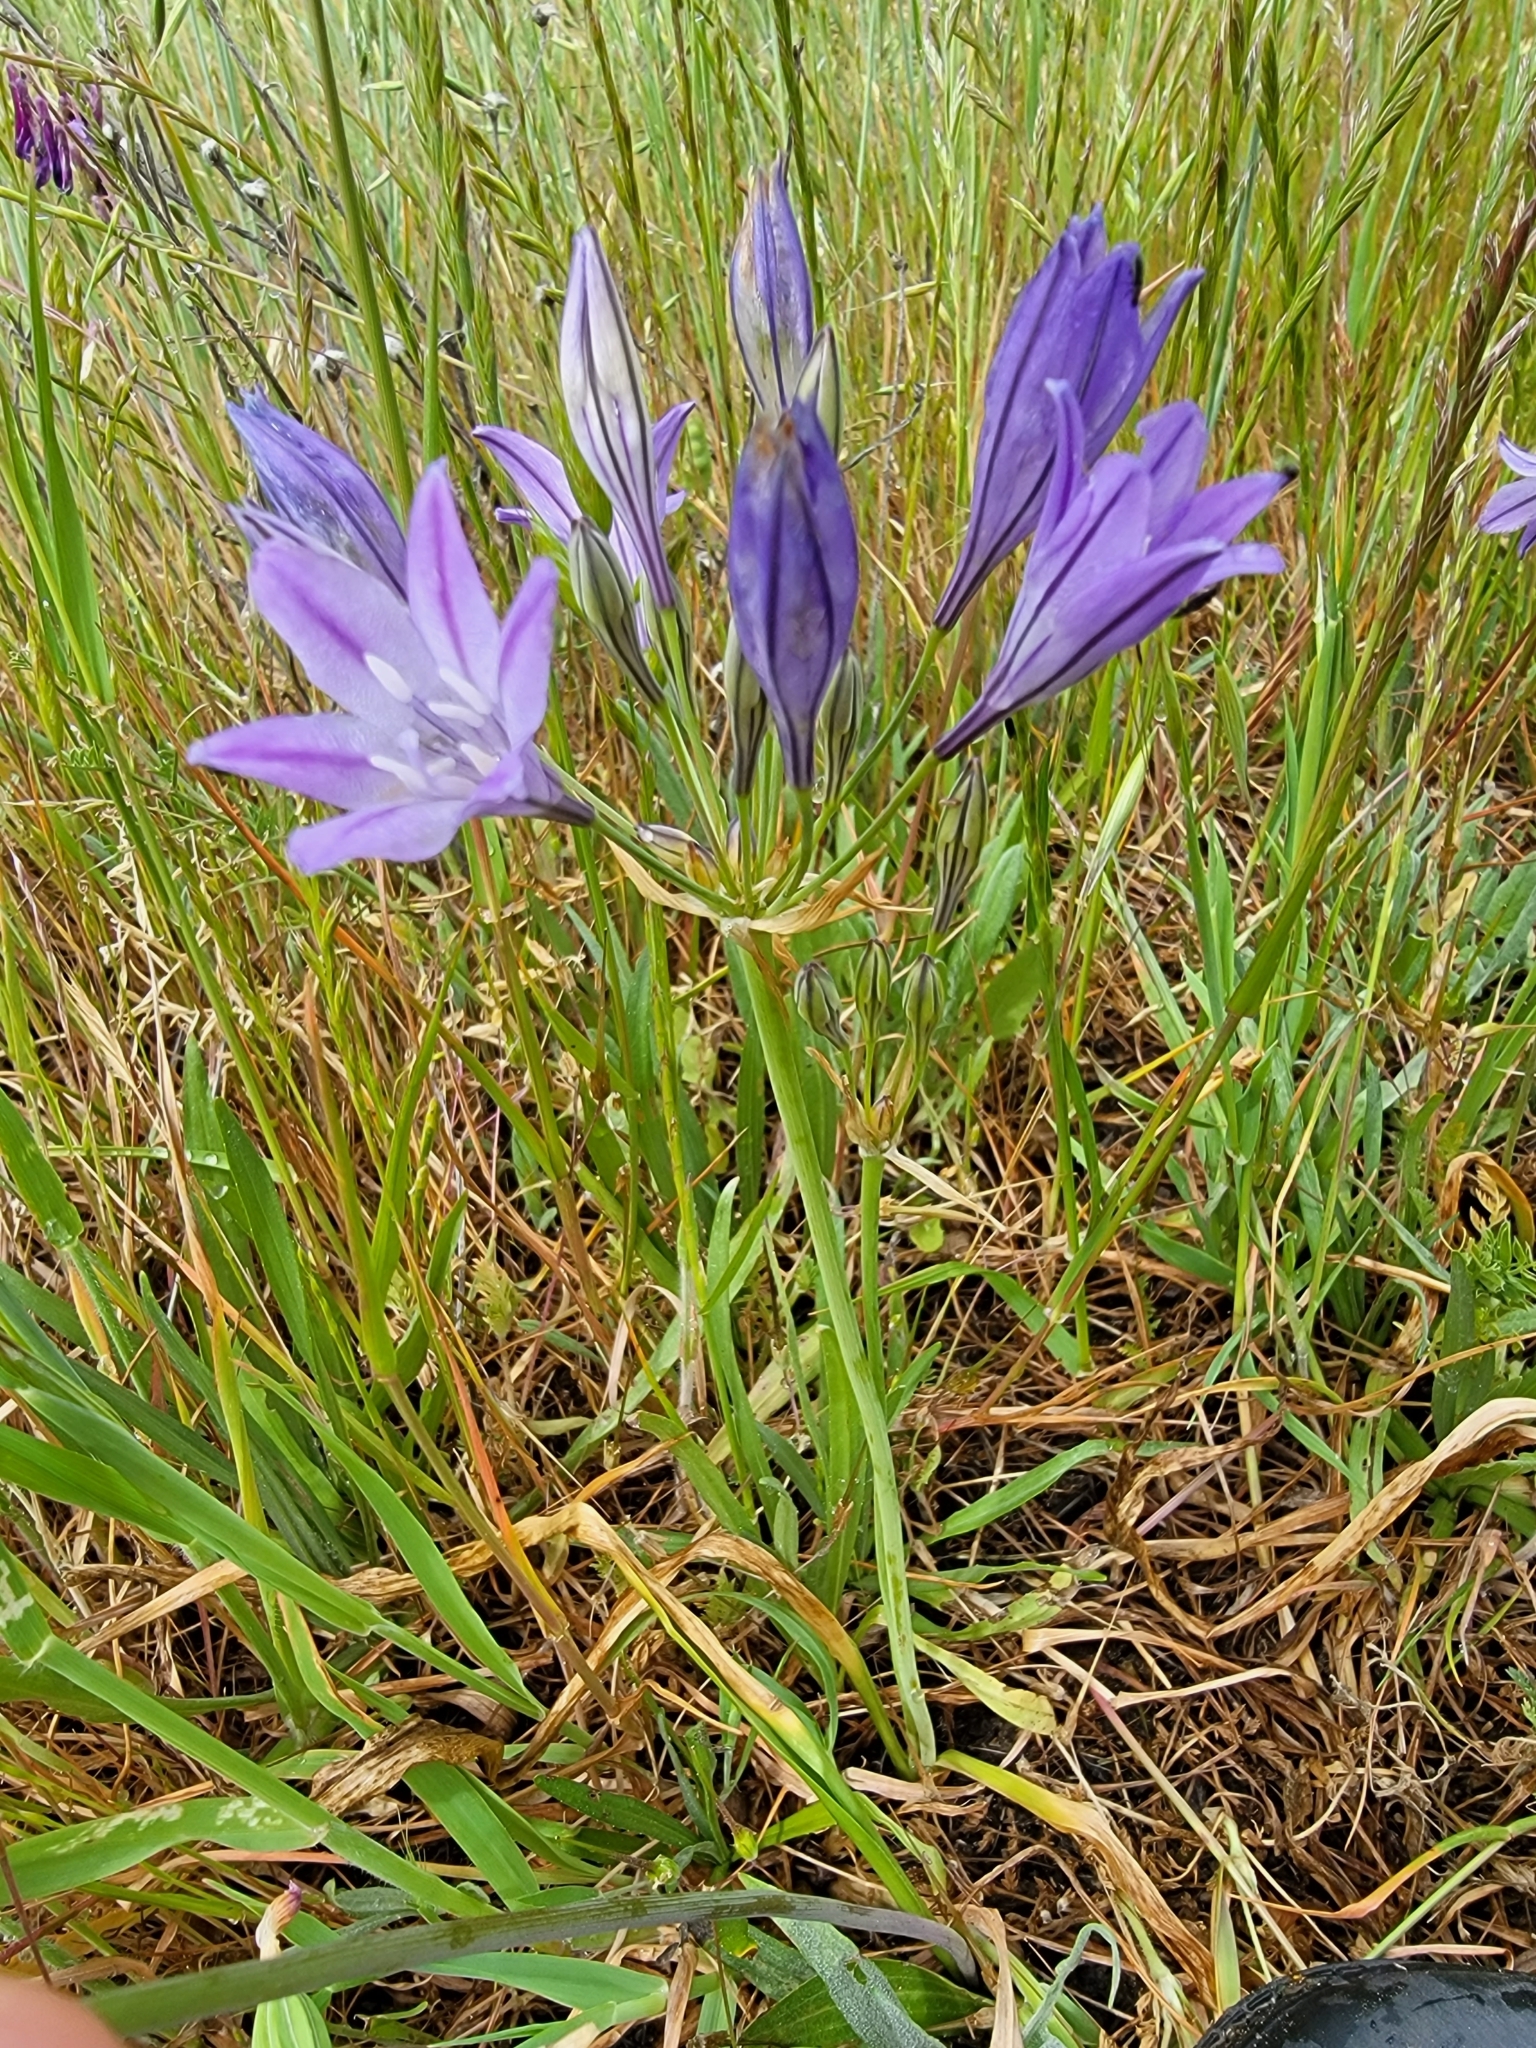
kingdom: Plantae
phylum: Tracheophyta
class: Liliopsida
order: Asparagales
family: Asparagaceae
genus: Triteleia
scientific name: Triteleia laxa
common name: Triplet-lily
